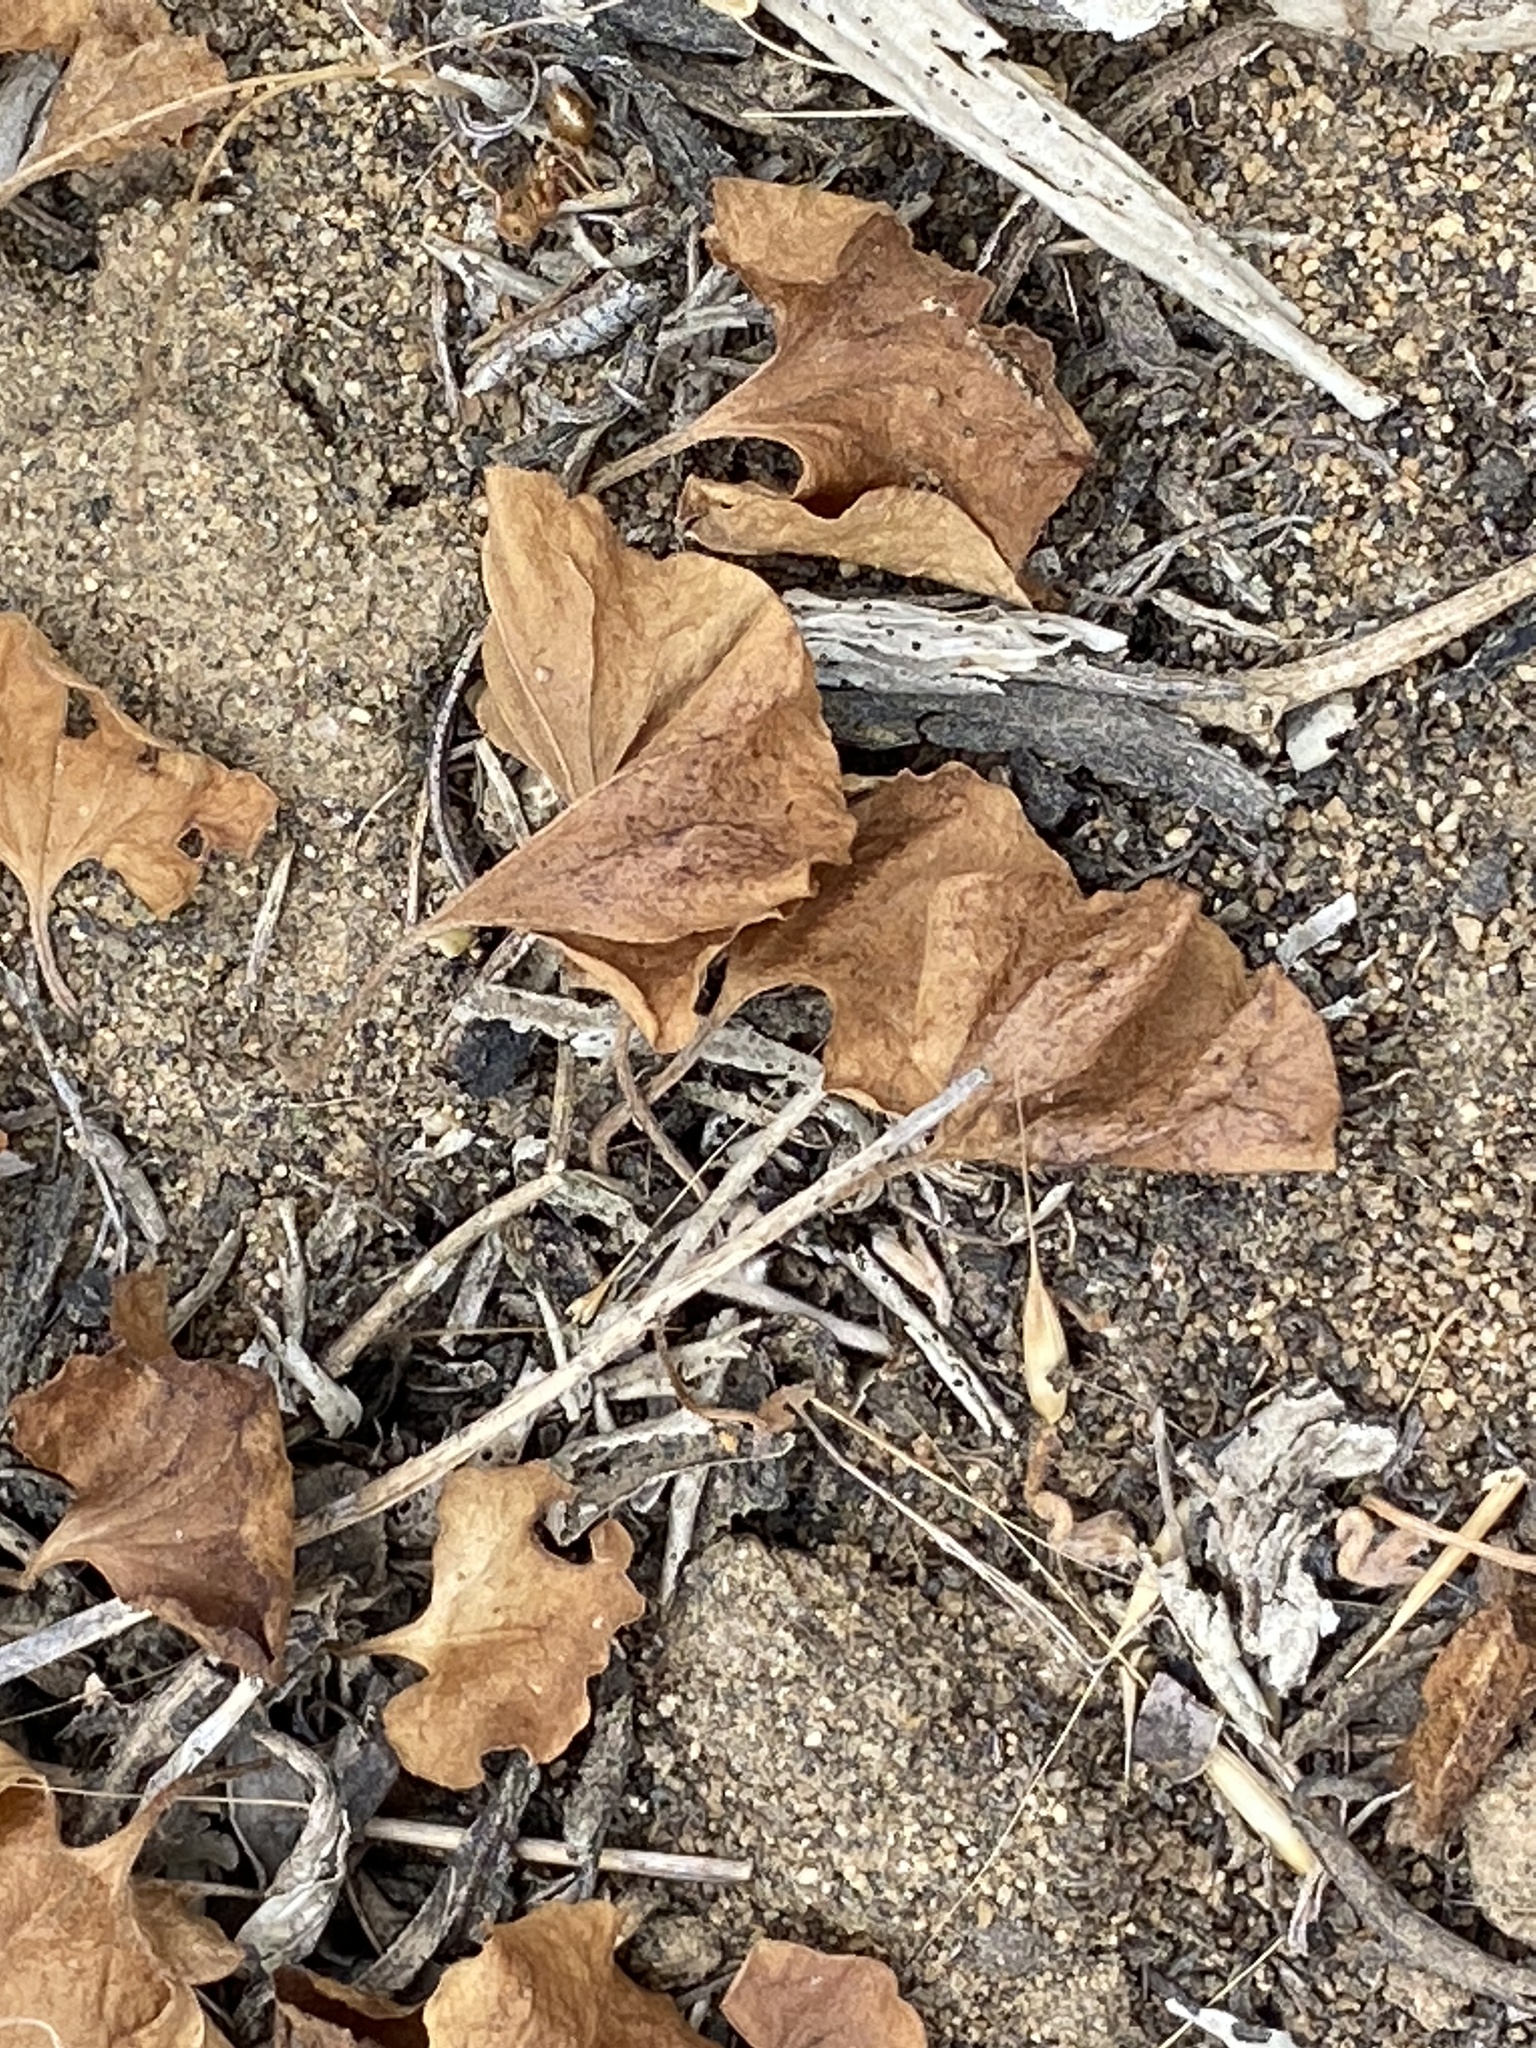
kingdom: Plantae
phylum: Tracheophyta
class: Magnoliopsida
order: Solanales
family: Convolvulaceae
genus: Dichondra
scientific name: Dichondra occidentalis
